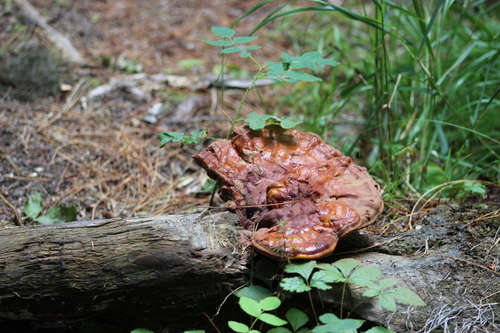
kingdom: Fungi
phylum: Basidiomycota
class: Agaricomycetes
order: Polyporales
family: Polyporaceae
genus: Ganoderma
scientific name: Ganoderma lucidum
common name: Lacquered bracket
